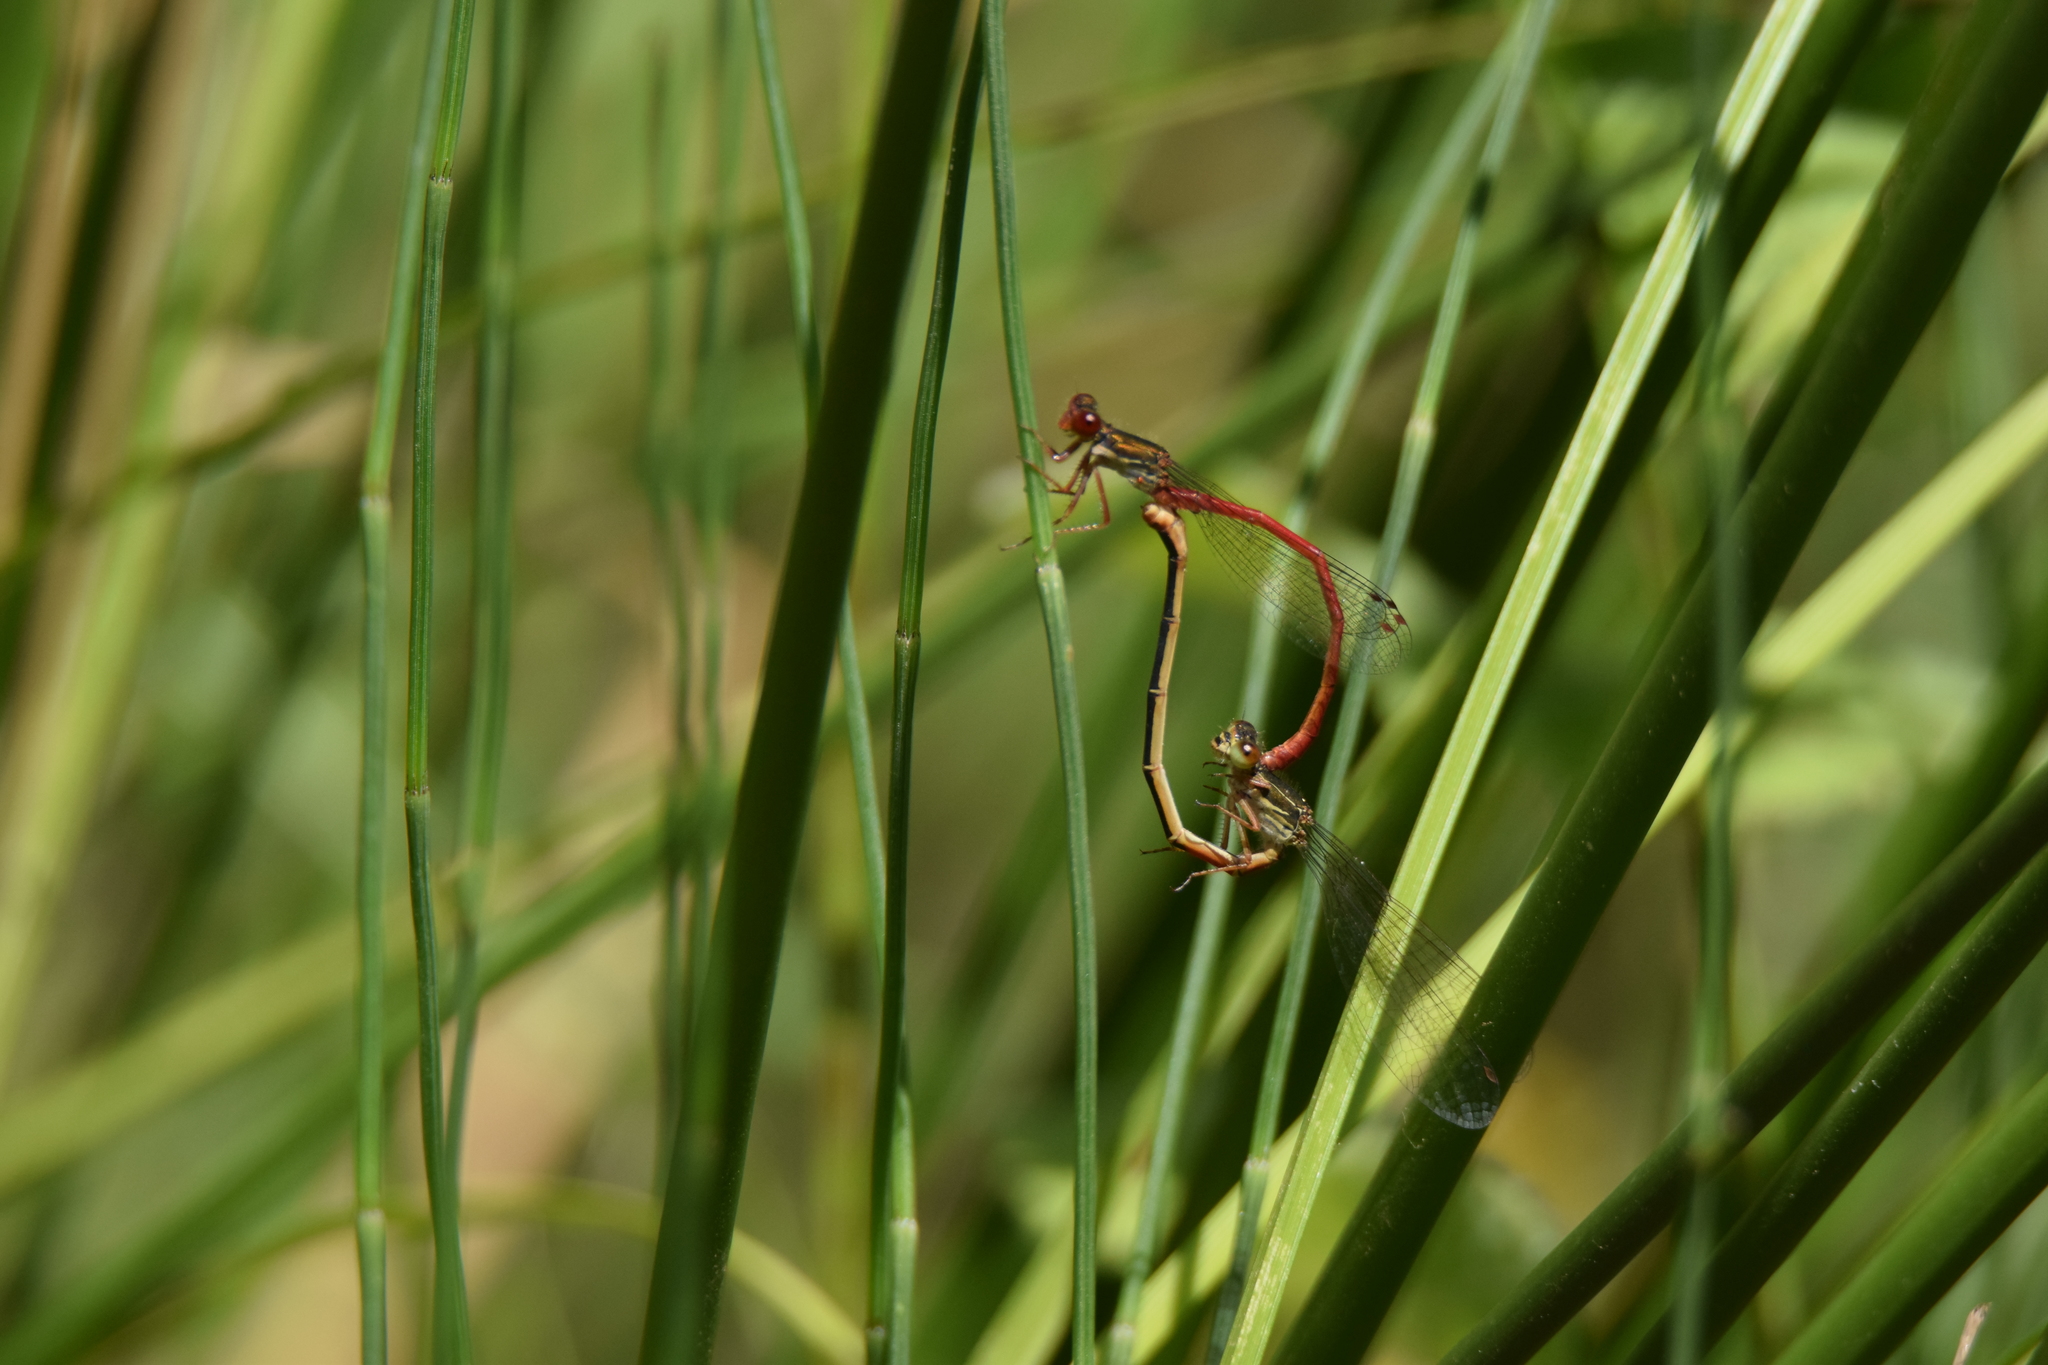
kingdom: Animalia
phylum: Arthropoda
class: Insecta
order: Odonata
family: Coenagrionidae
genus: Ceriagrion
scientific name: Ceriagrion tenellum
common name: Small red damselfly
